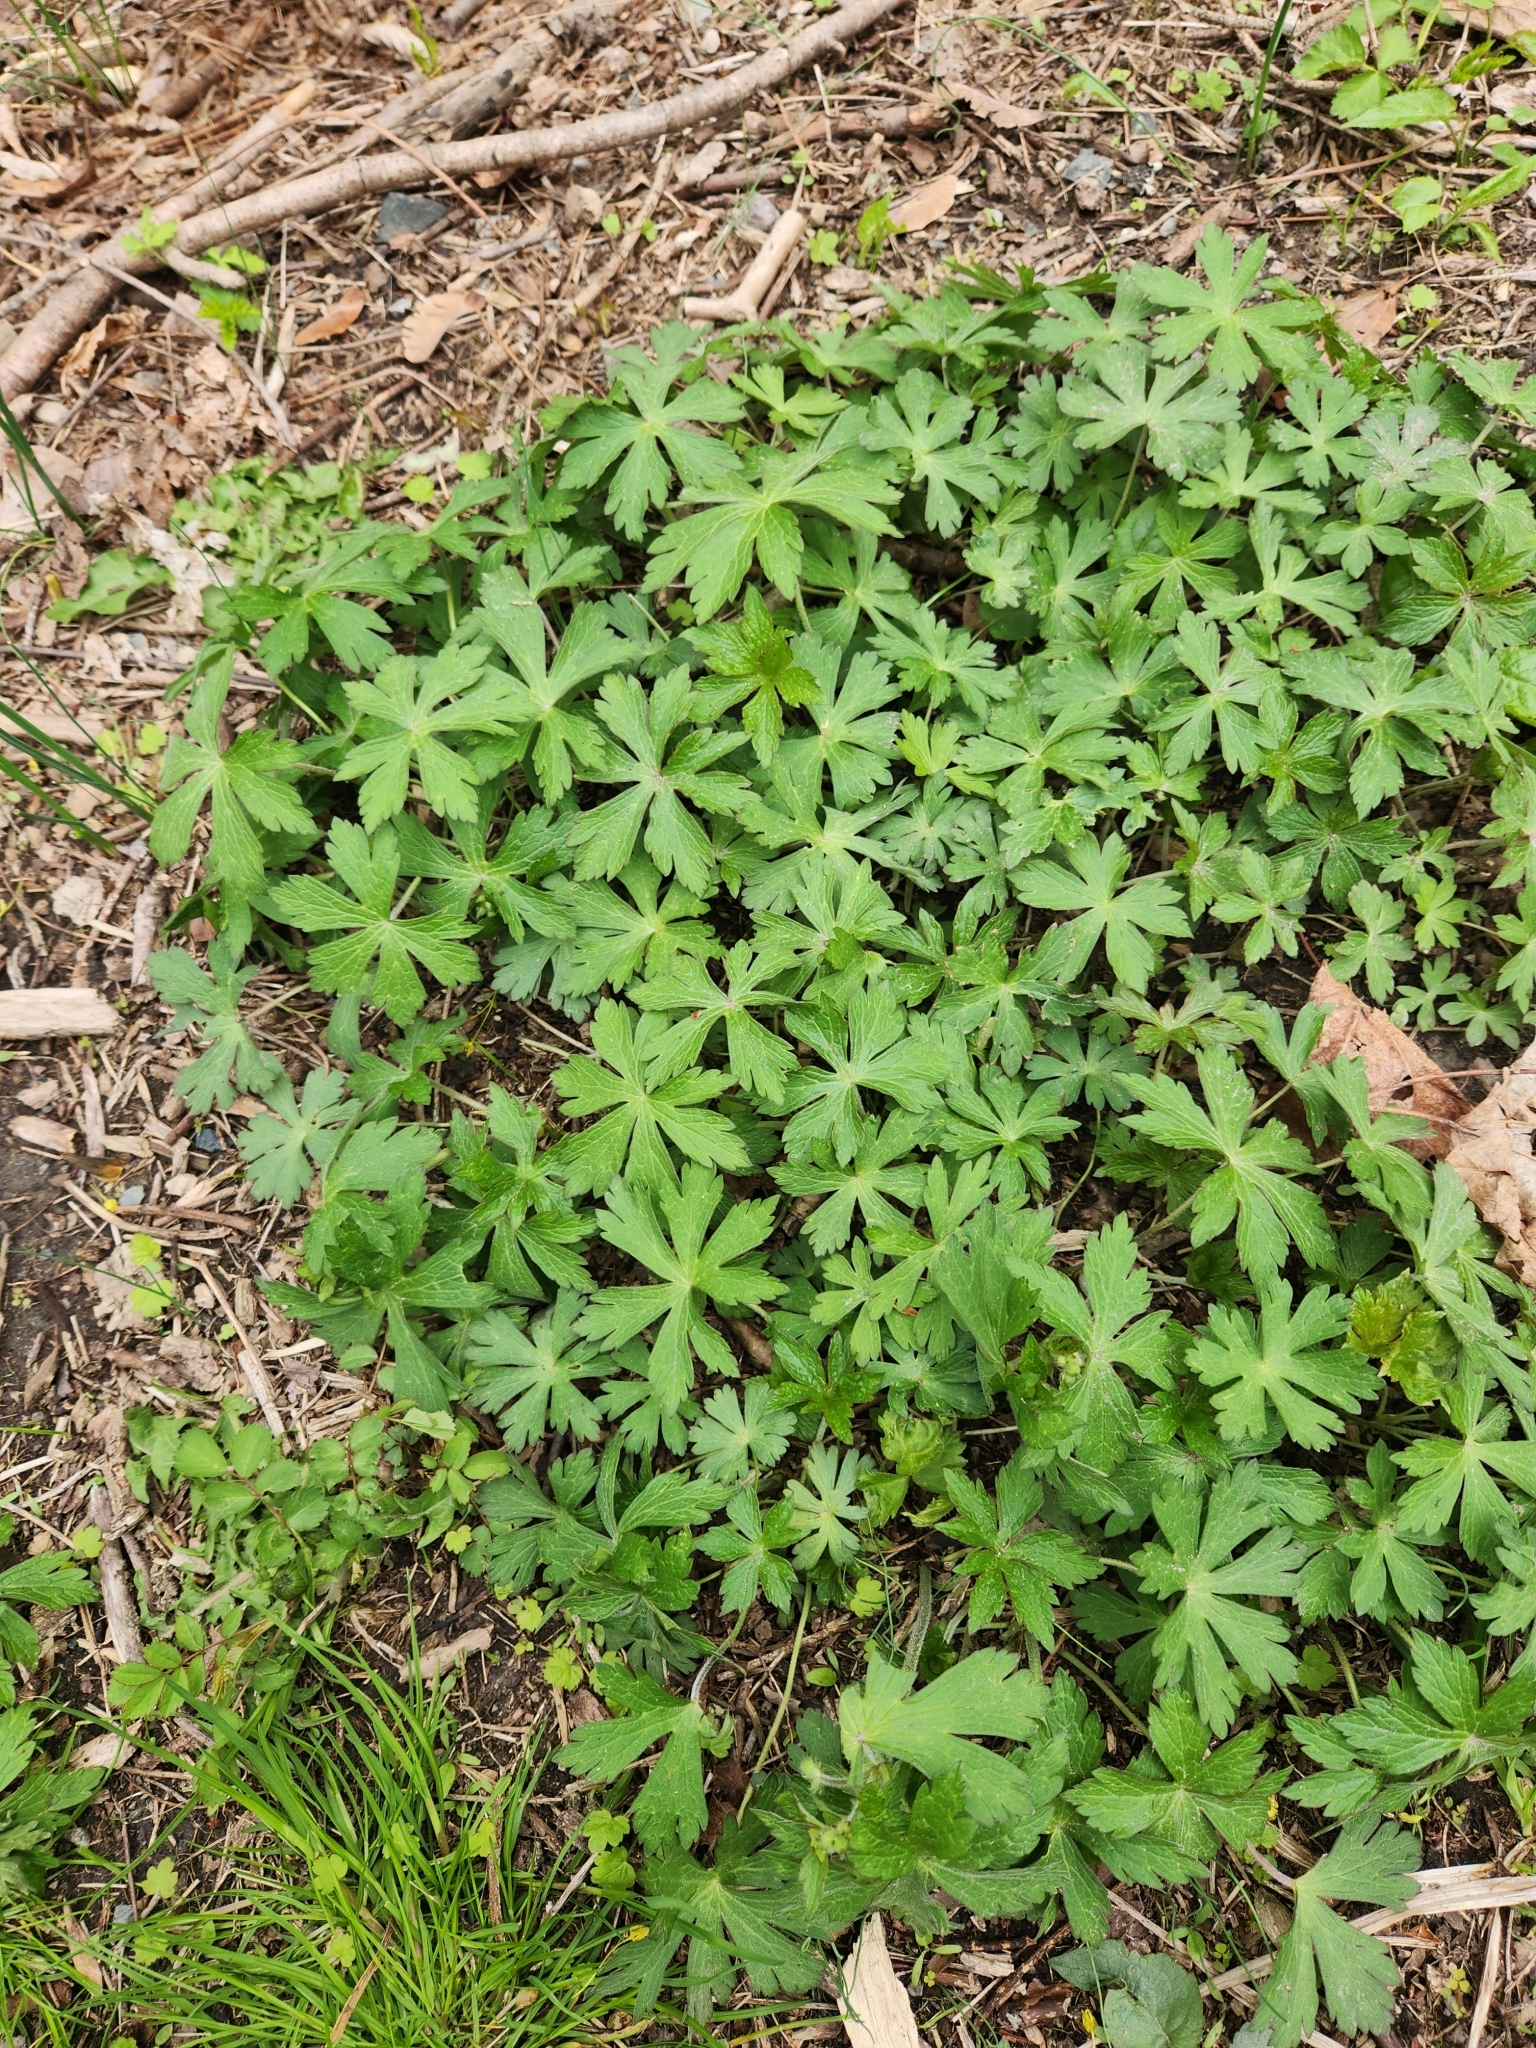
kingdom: Plantae
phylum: Tracheophyta
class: Magnoliopsida
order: Geraniales
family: Geraniaceae
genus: Geranium
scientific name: Geranium maculatum
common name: Spotted geranium
